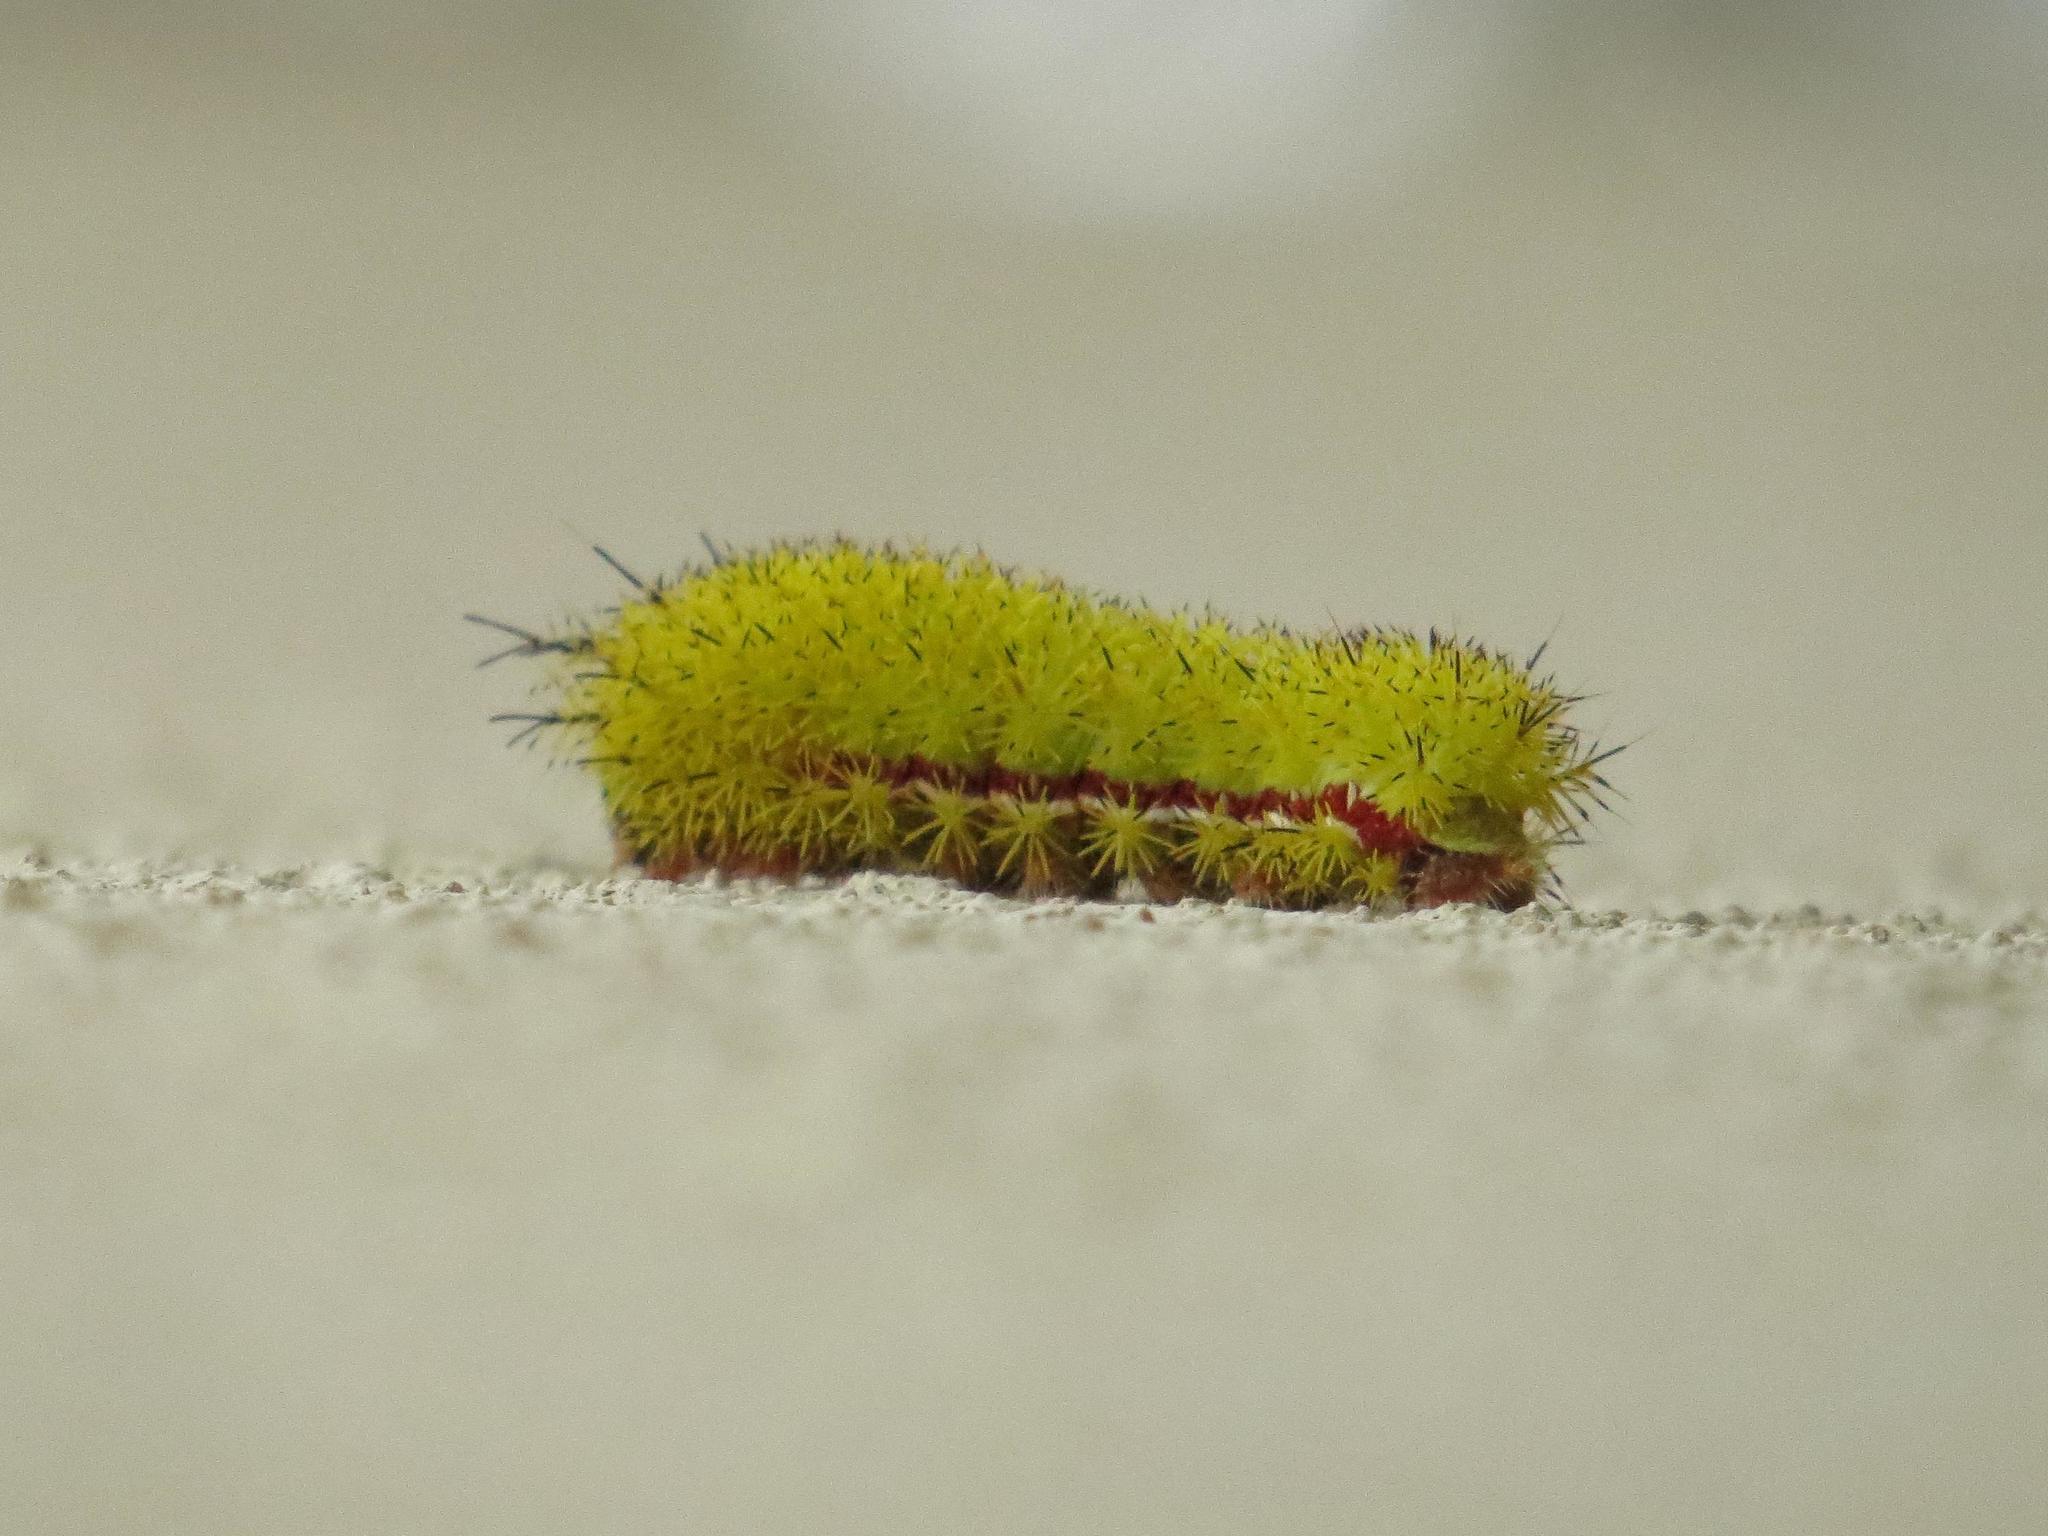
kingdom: Animalia
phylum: Arthropoda
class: Insecta
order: Lepidoptera
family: Saturniidae
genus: Automeris
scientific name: Automeris io
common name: Io moth
